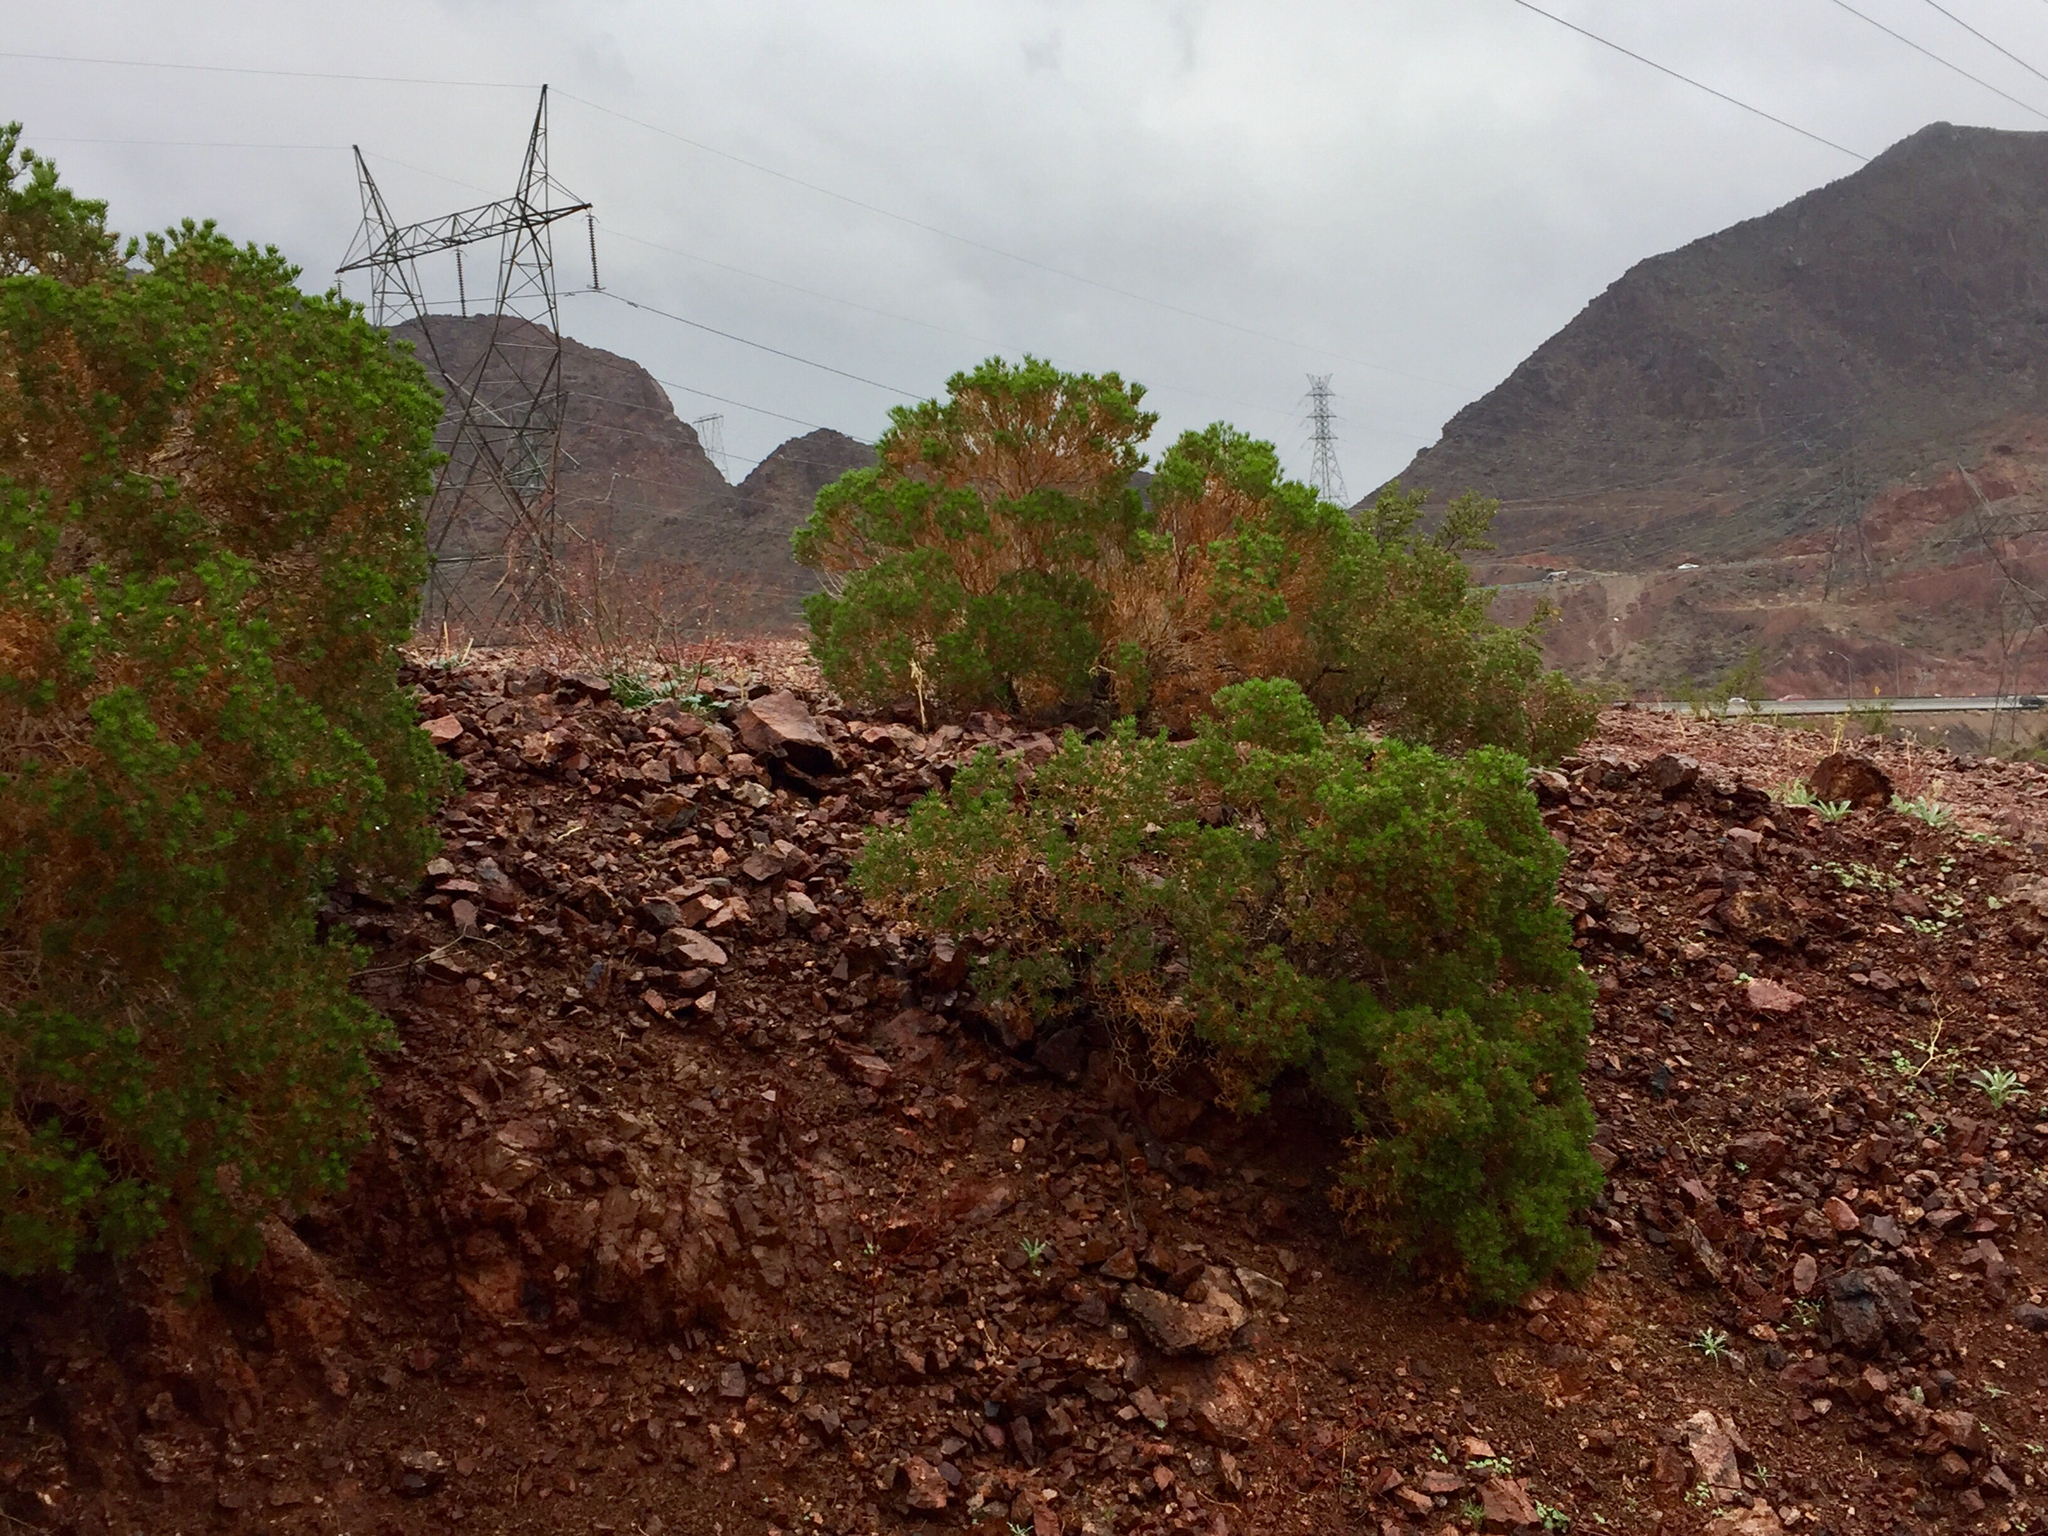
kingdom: Plantae
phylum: Tracheophyta
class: Magnoliopsida
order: Asterales
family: Asteraceae
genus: Peucephyllum
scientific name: Peucephyllum schottii
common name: Pygmy-cedar
